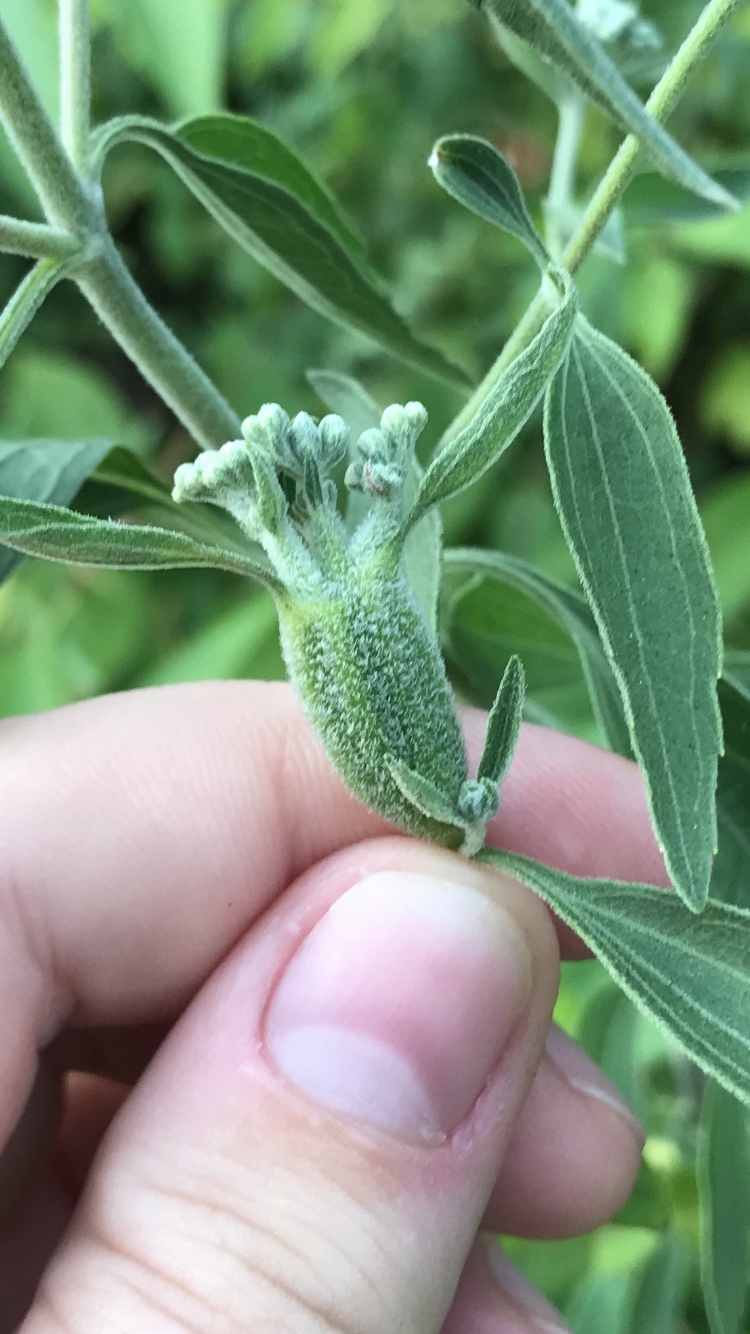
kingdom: Animalia
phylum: Arthropoda
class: Insecta
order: Diptera
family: Cecidomyiidae
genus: Neolasioptera
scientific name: Neolasioptera perfoliata
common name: Boneset stem midge
